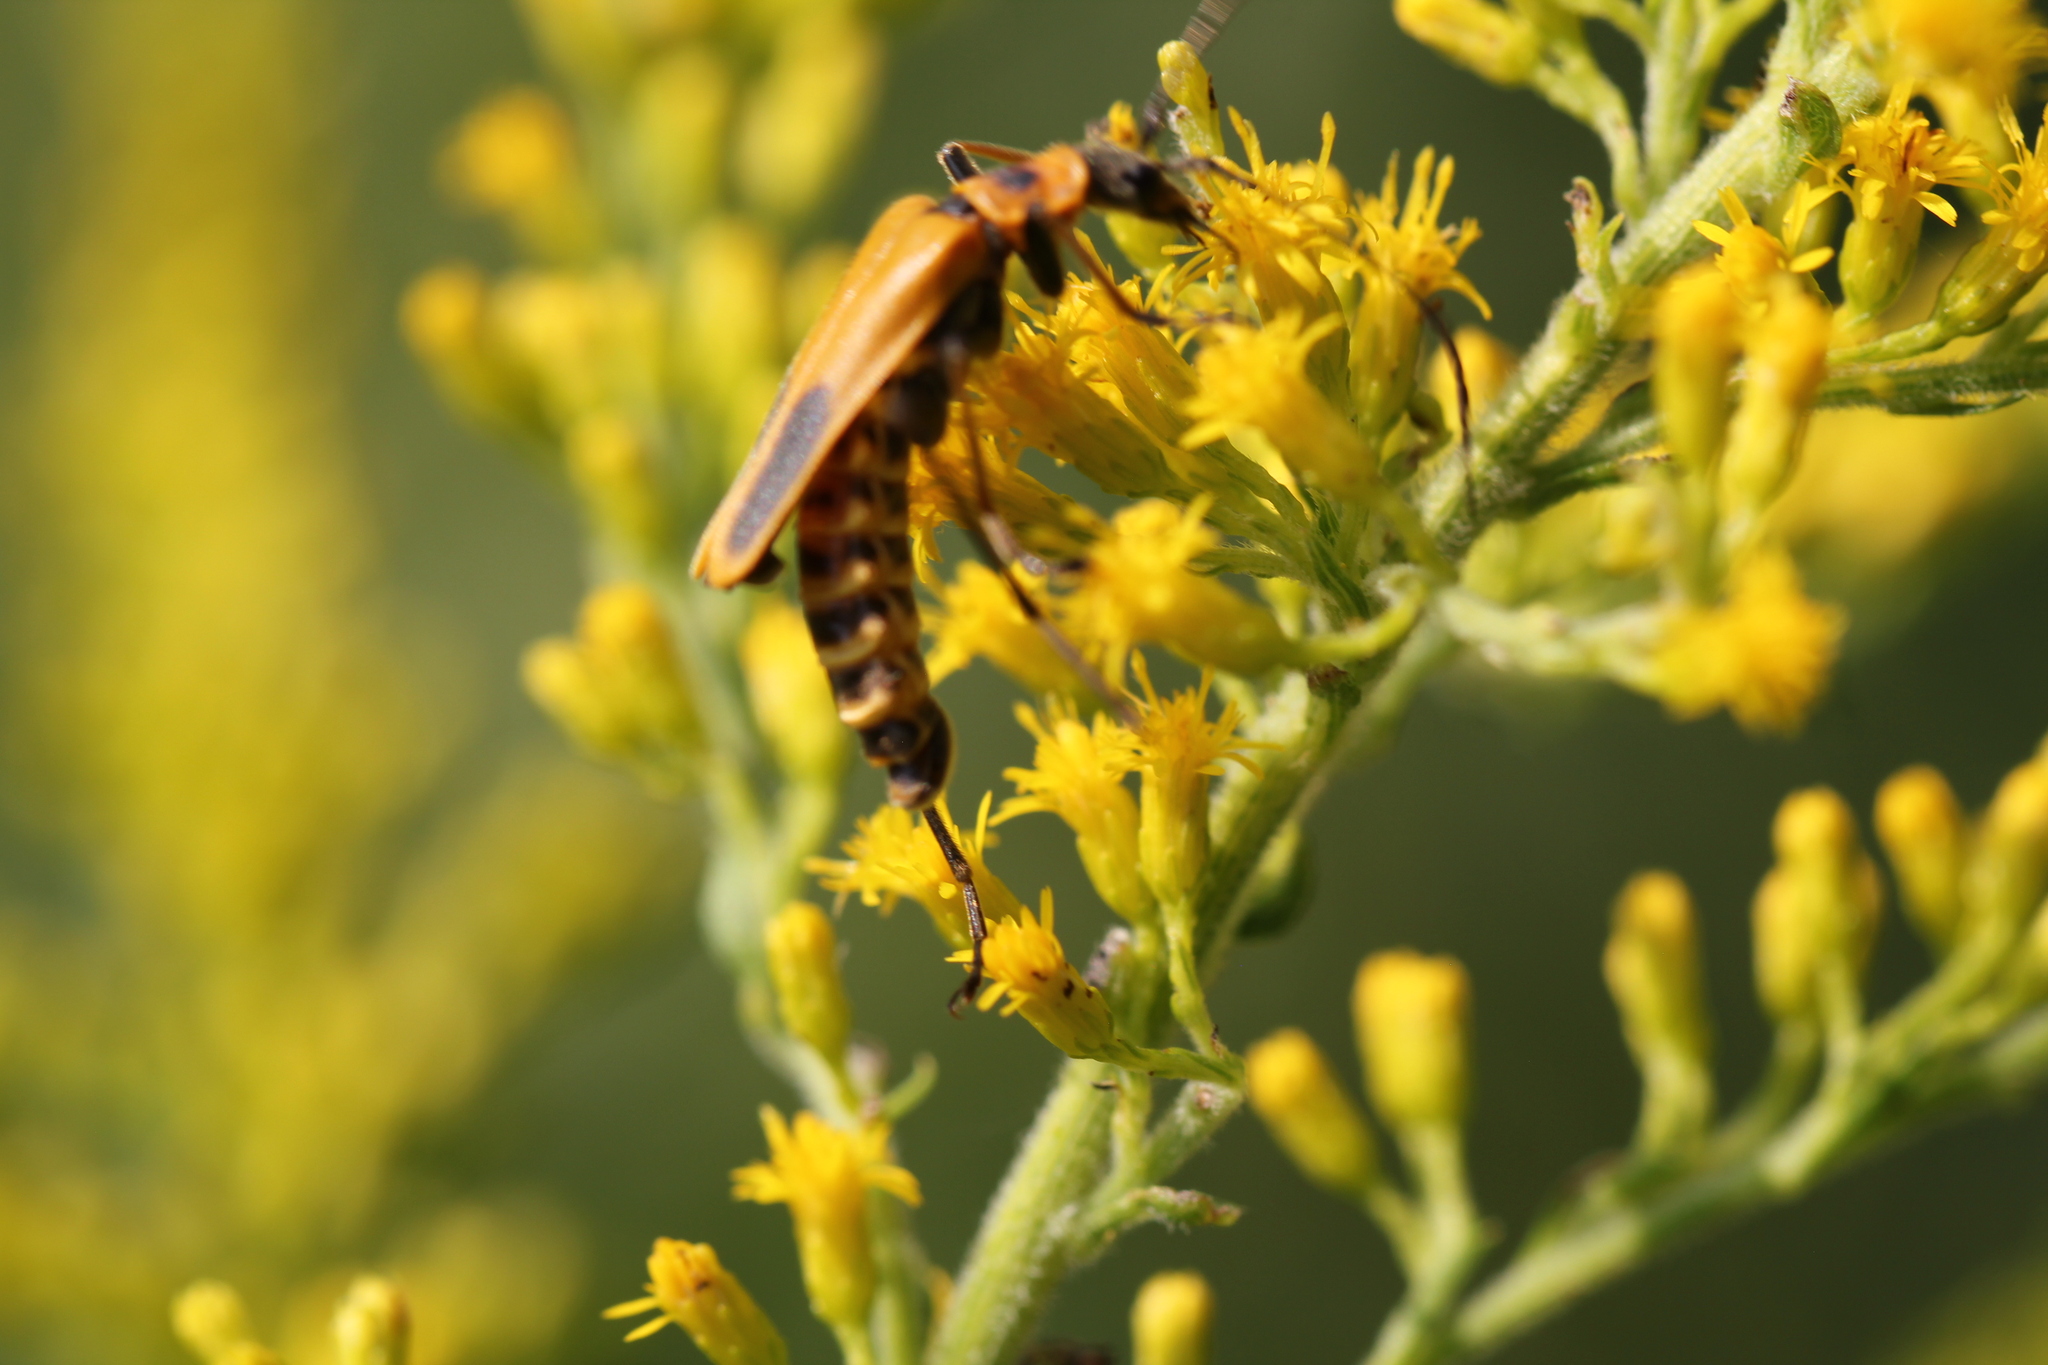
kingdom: Animalia
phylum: Arthropoda
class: Insecta
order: Coleoptera
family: Cantharidae
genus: Chauliognathus
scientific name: Chauliognathus pensylvanicus
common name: Goldenrod soldier beetle
